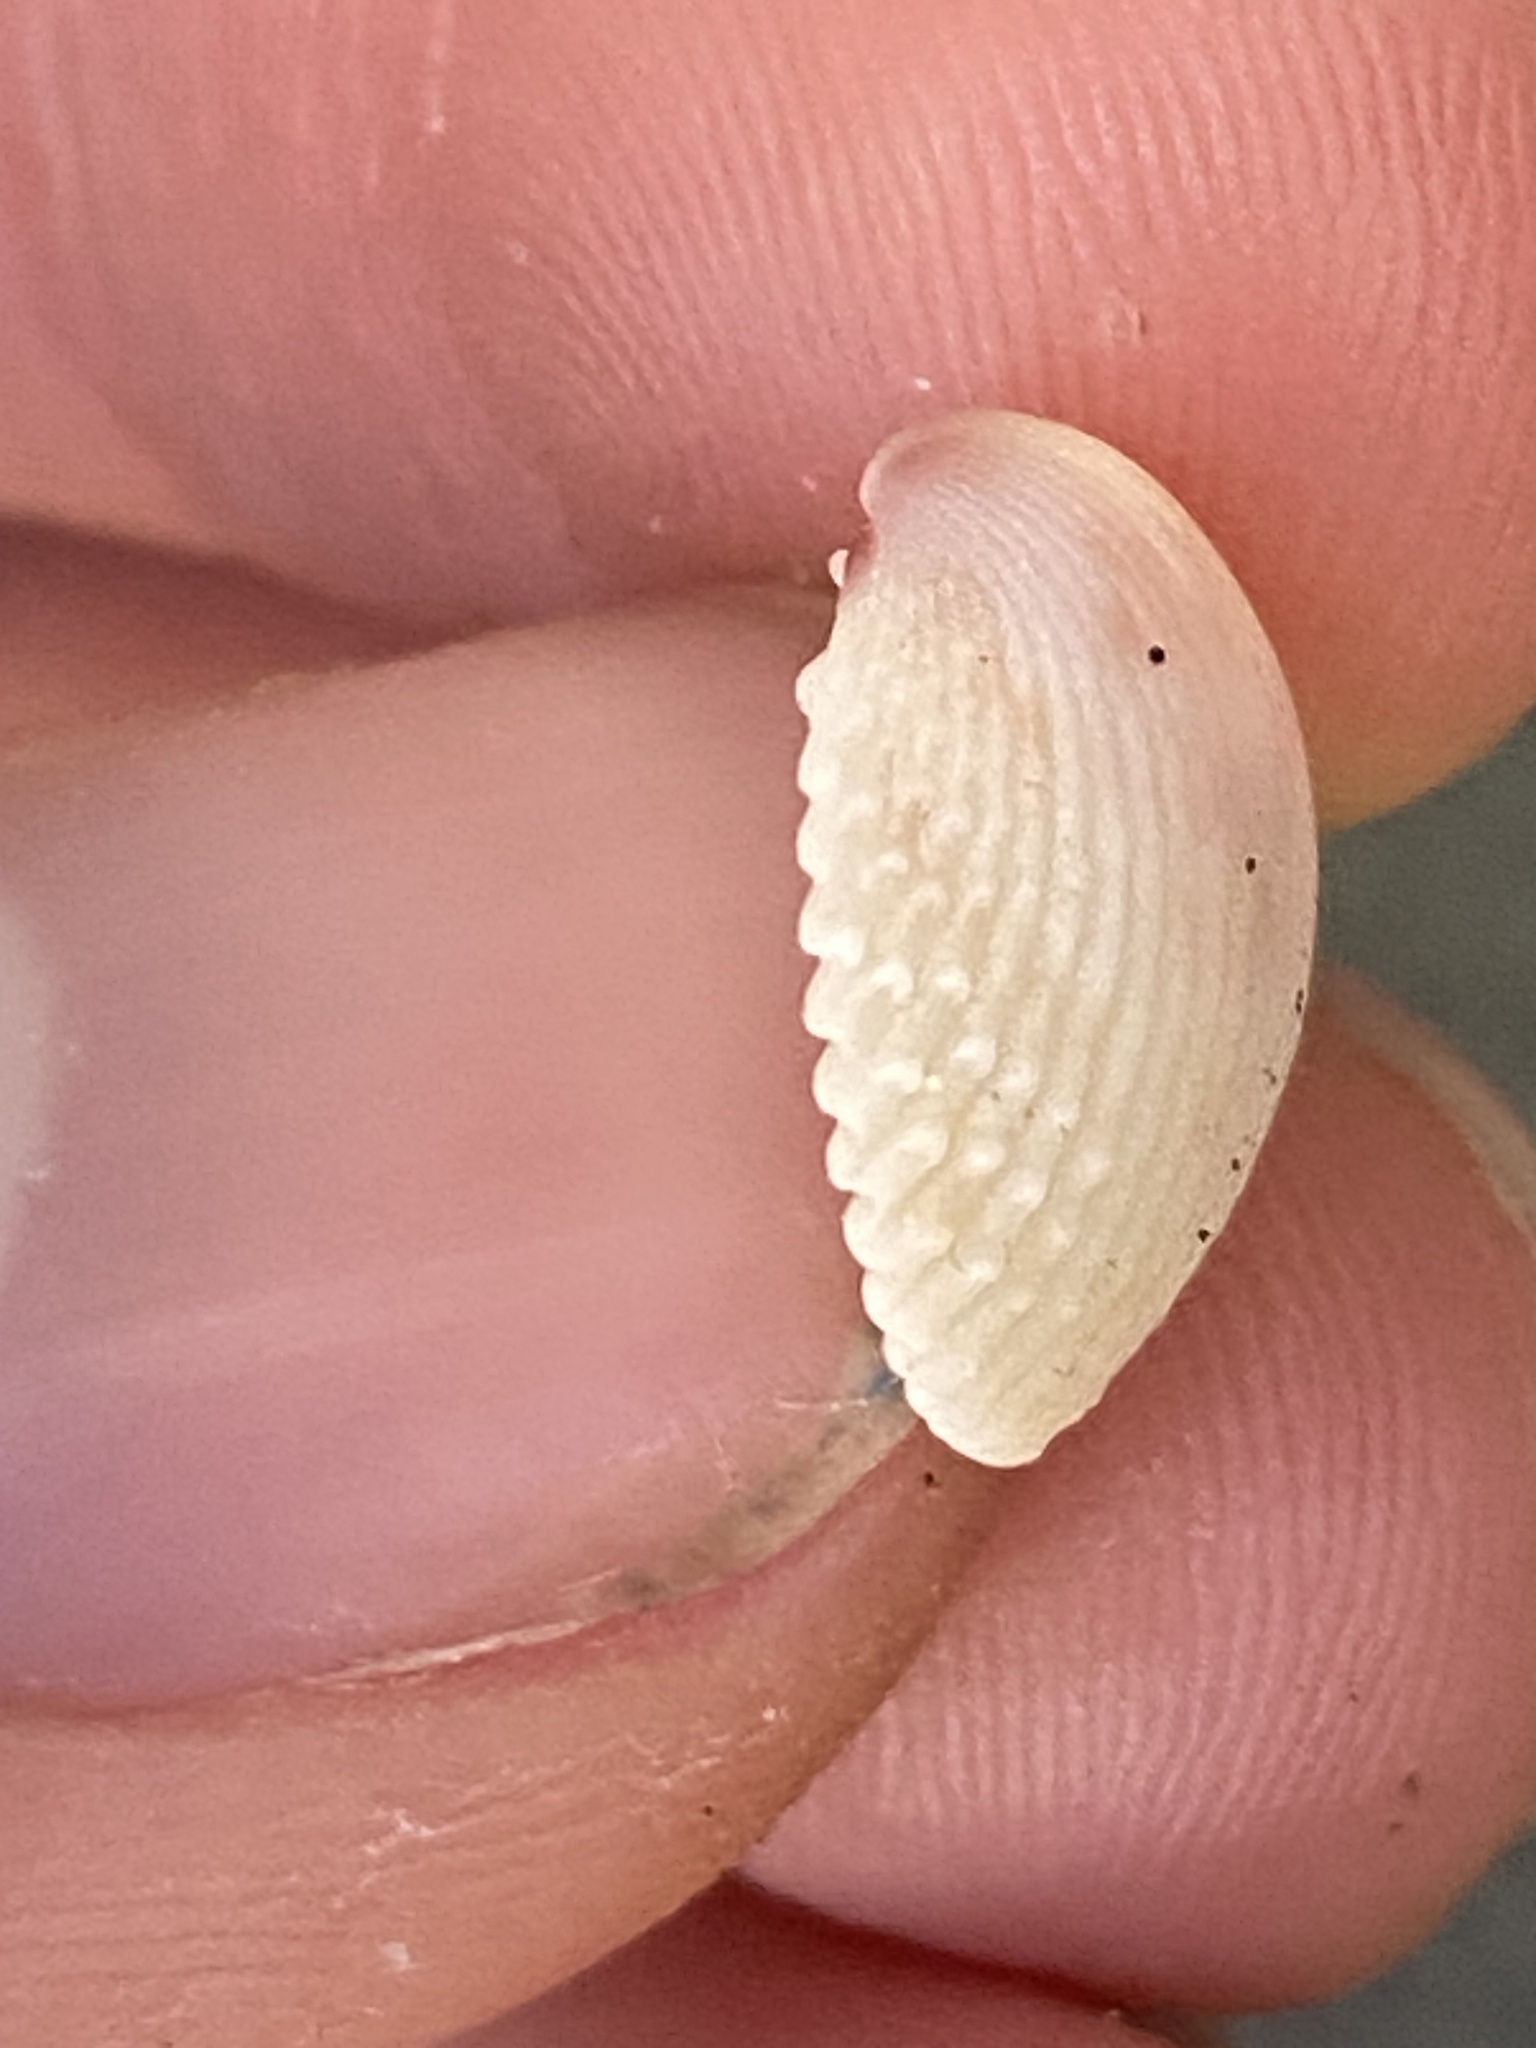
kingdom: Animalia
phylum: Mollusca
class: Bivalvia
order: Cardiida
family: Cardiidae
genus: Trachycardium
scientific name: Trachycardium egmontianum
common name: Florida pricklycockle
